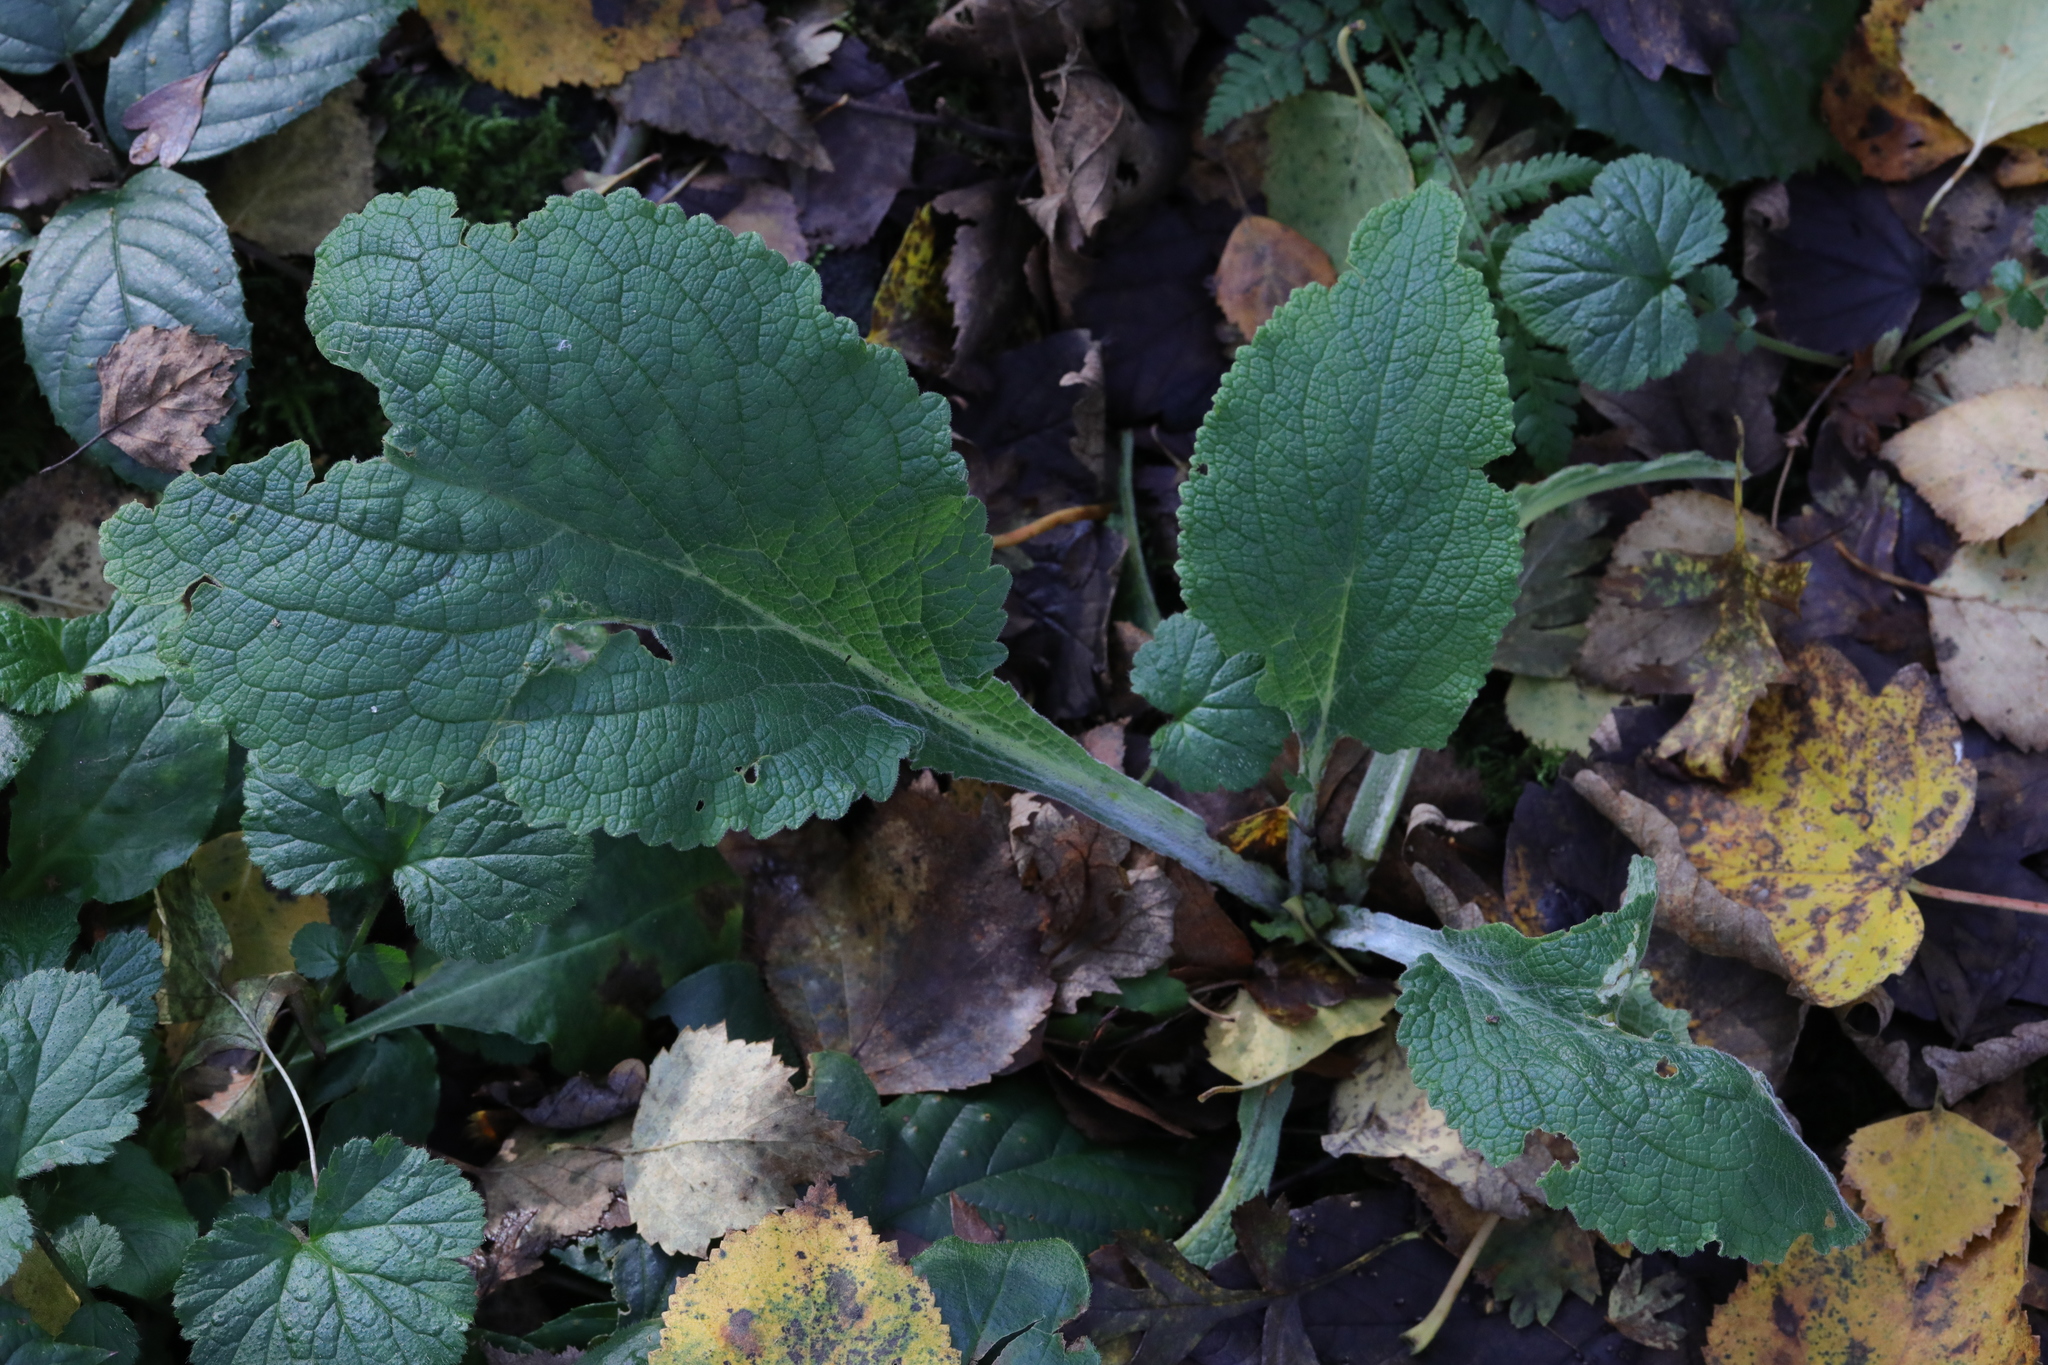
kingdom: Plantae
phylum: Tracheophyta
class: Magnoliopsida
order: Lamiales
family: Plantaginaceae
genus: Digitalis
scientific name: Digitalis purpurea
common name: Foxglove
